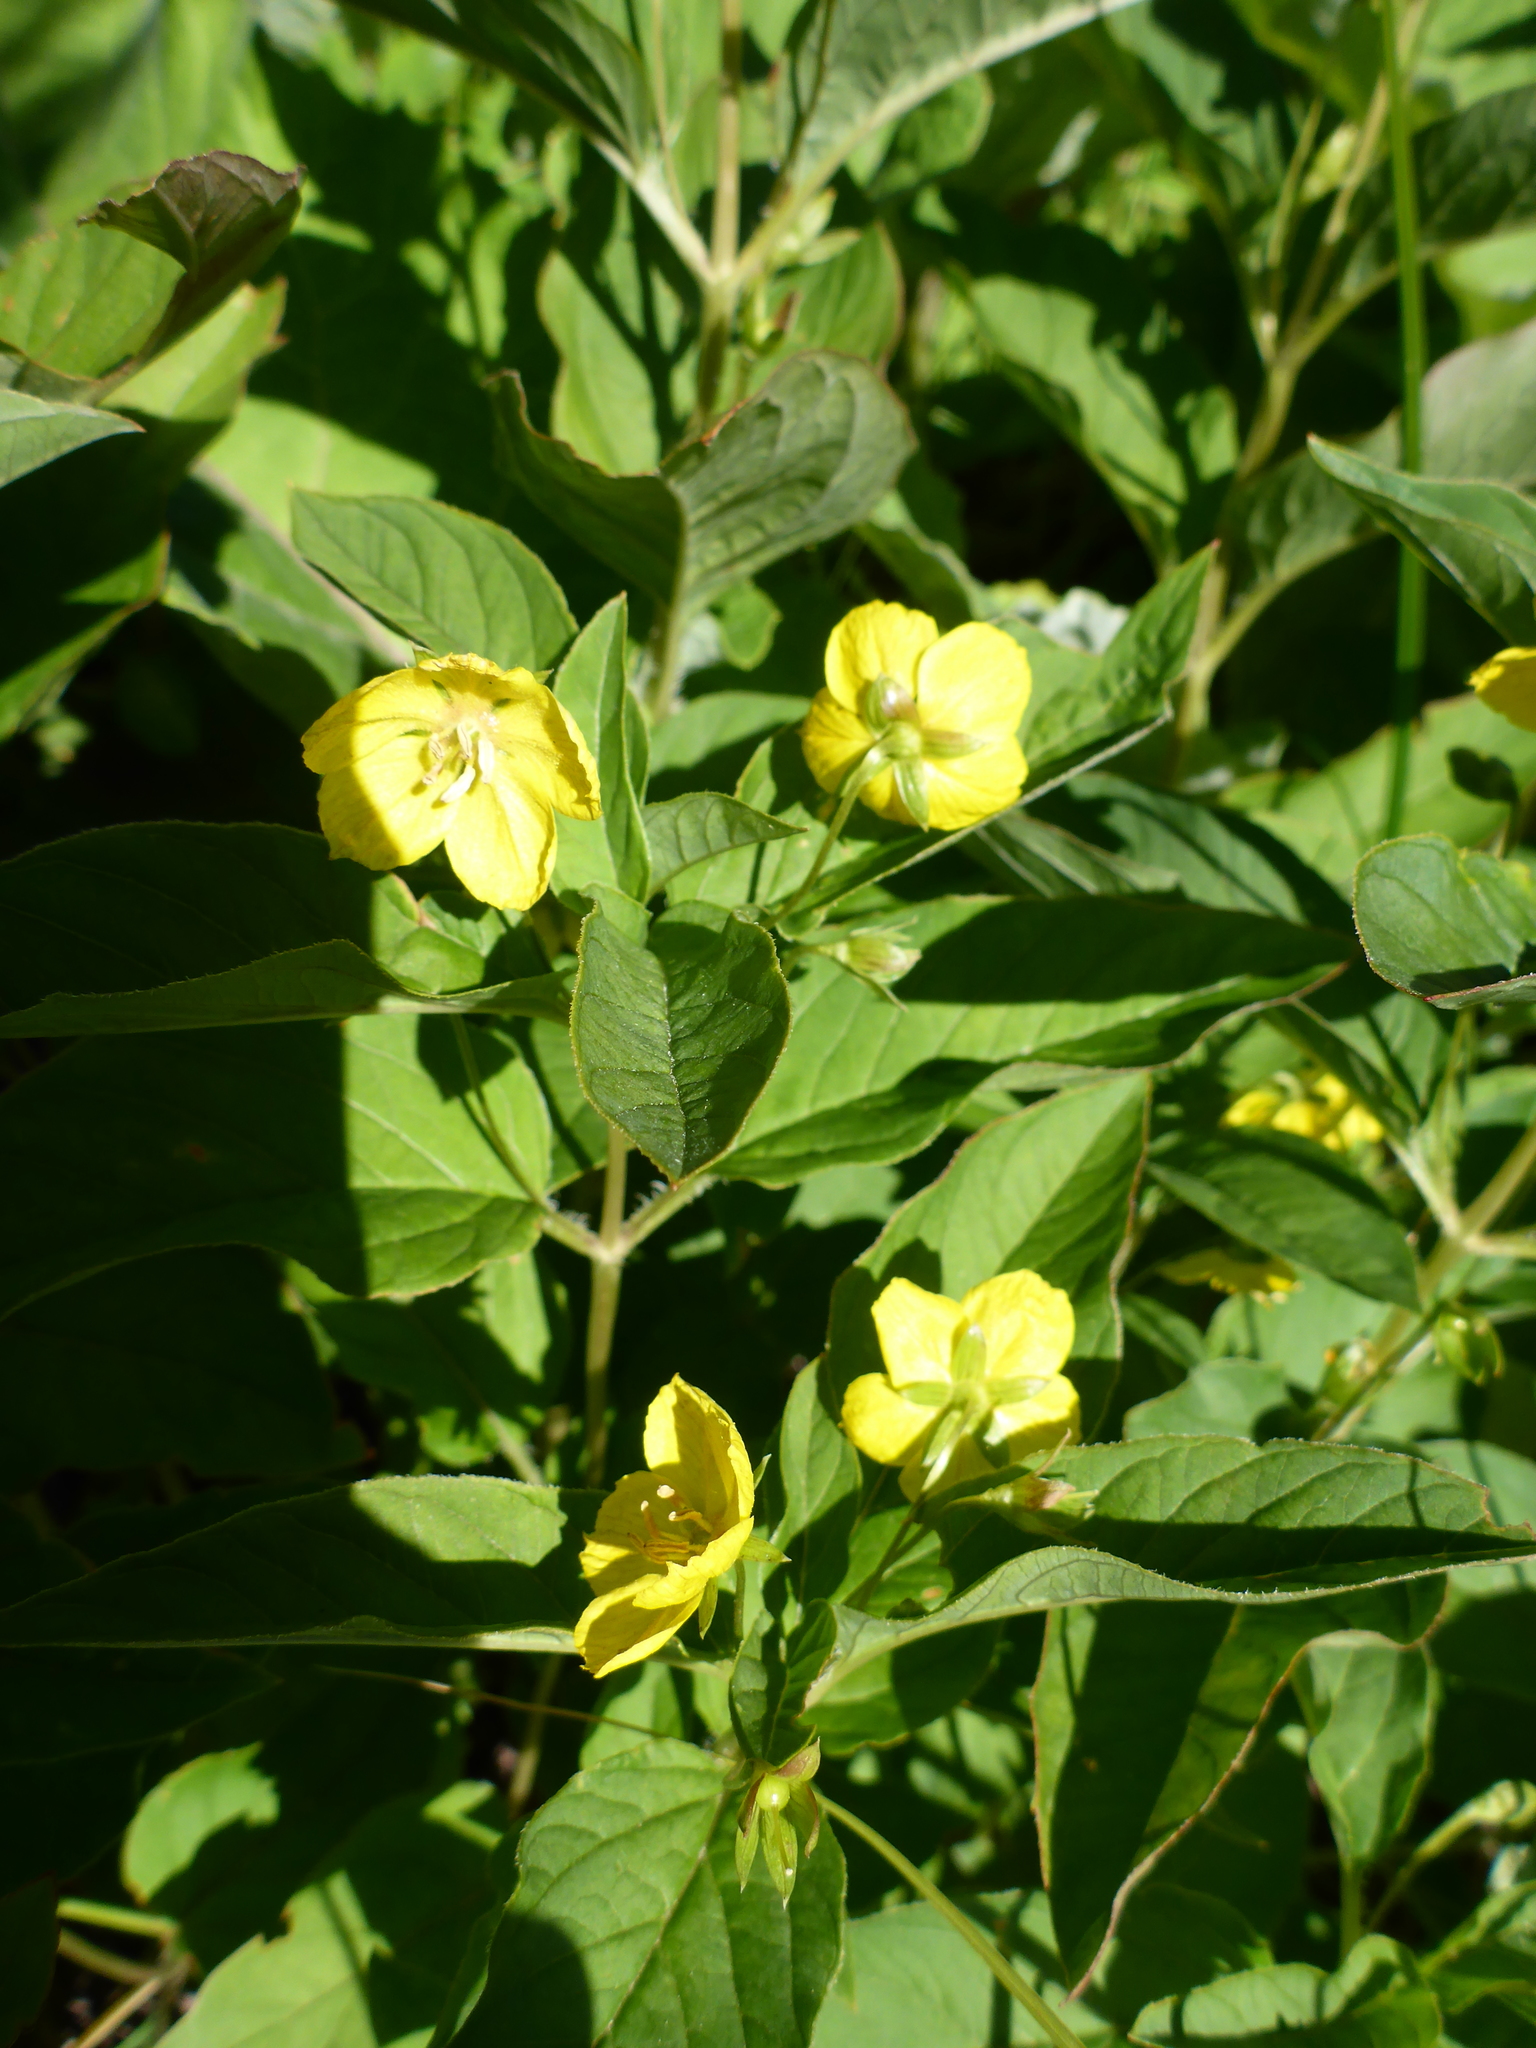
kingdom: Plantae
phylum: Tracheophyta
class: Magnoliopsida
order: Ericales
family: Primulaceae
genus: Lysimachia
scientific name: Lysimachia ciliata
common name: Fringed loosestrife
